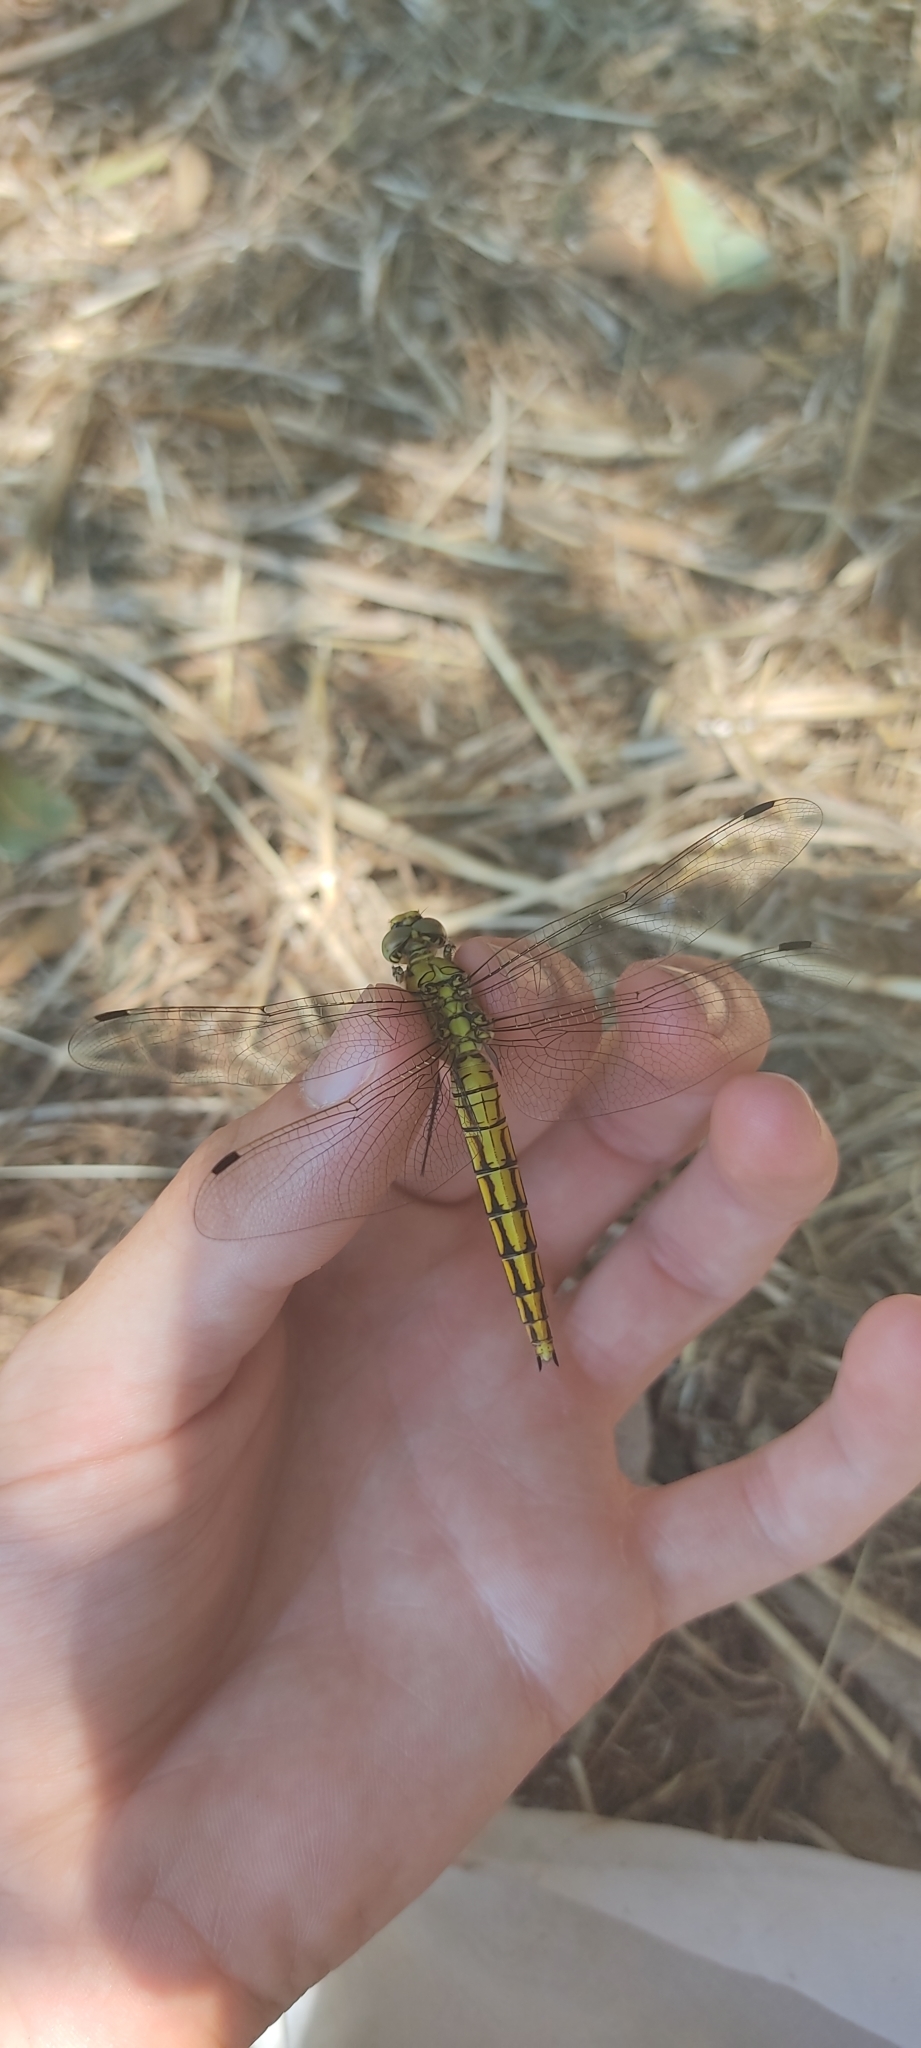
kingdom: Animalia
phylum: Arthropoda
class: Insecta
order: Odonata
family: Libellulidae
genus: Orthetrum
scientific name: Orthetrum cancellatum
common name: Black-tailed skimmer
